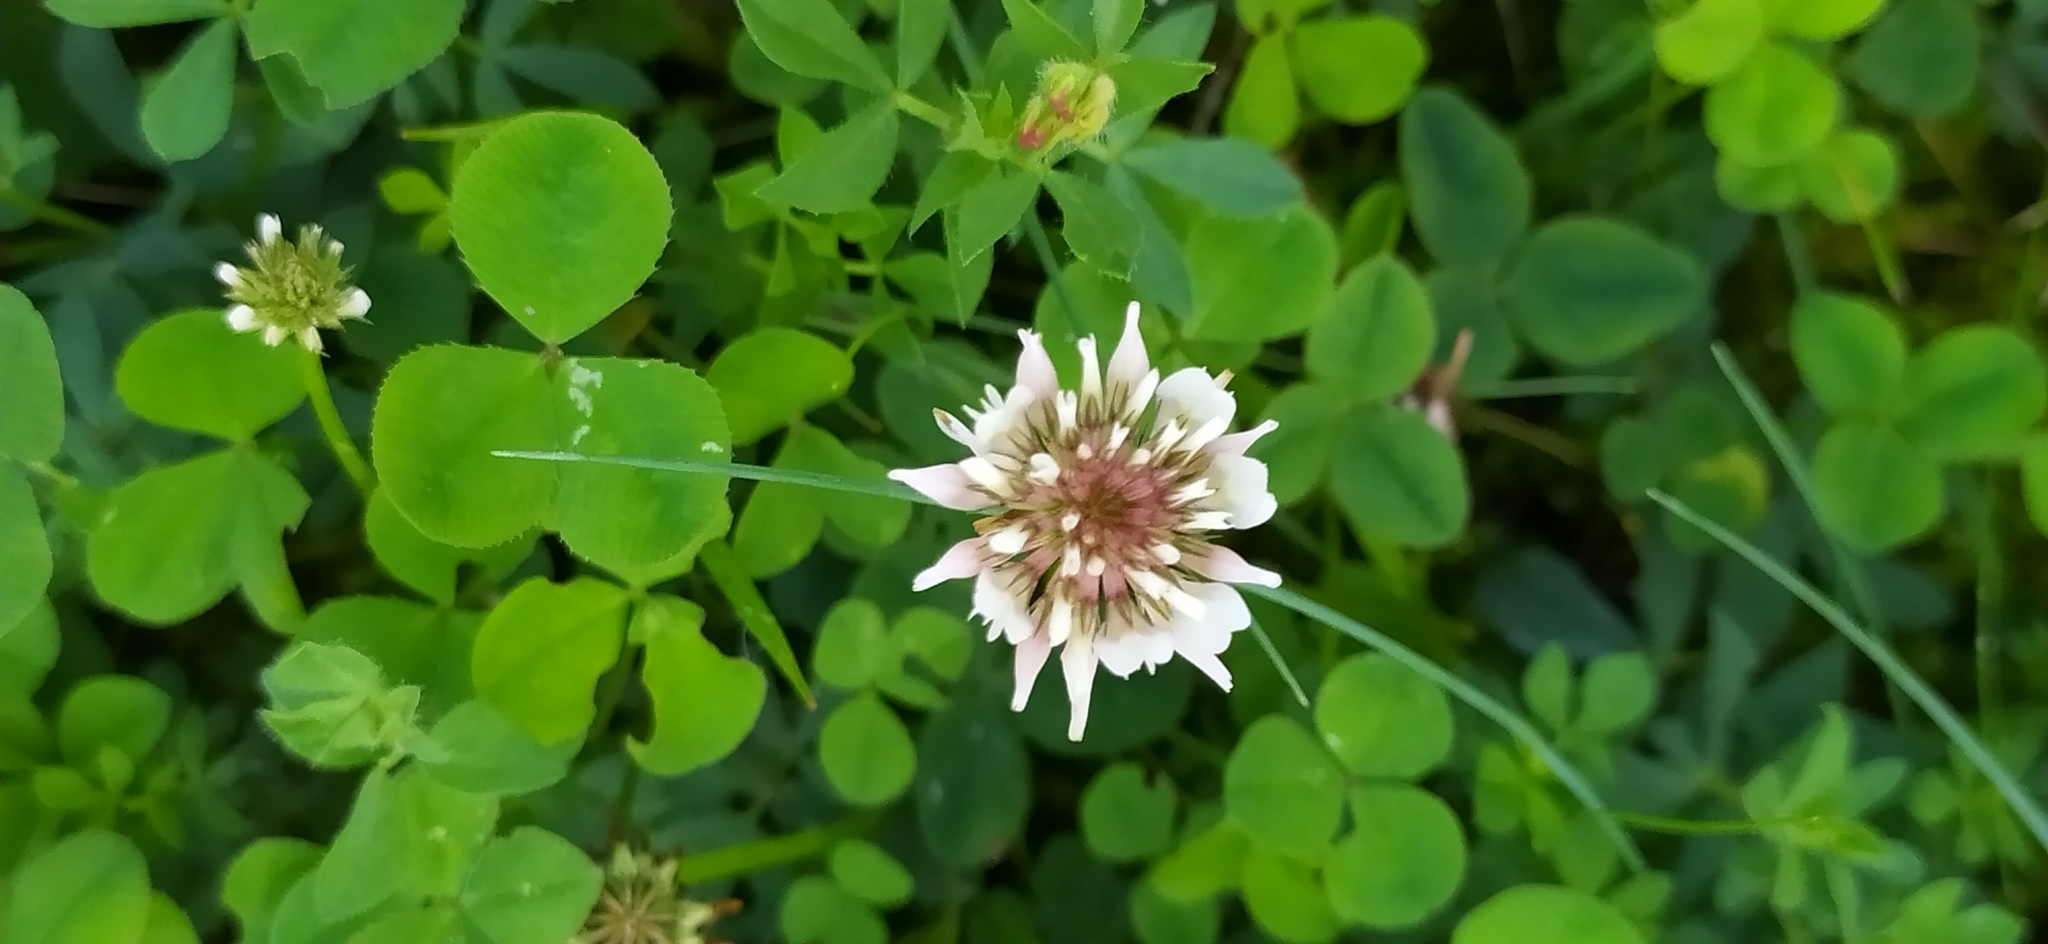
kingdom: Plantae
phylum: Tracheophyta
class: Magnoliopsida
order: Fabales
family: Fabaceae
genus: Trifolium
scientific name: Trifolium repens
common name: White clover
